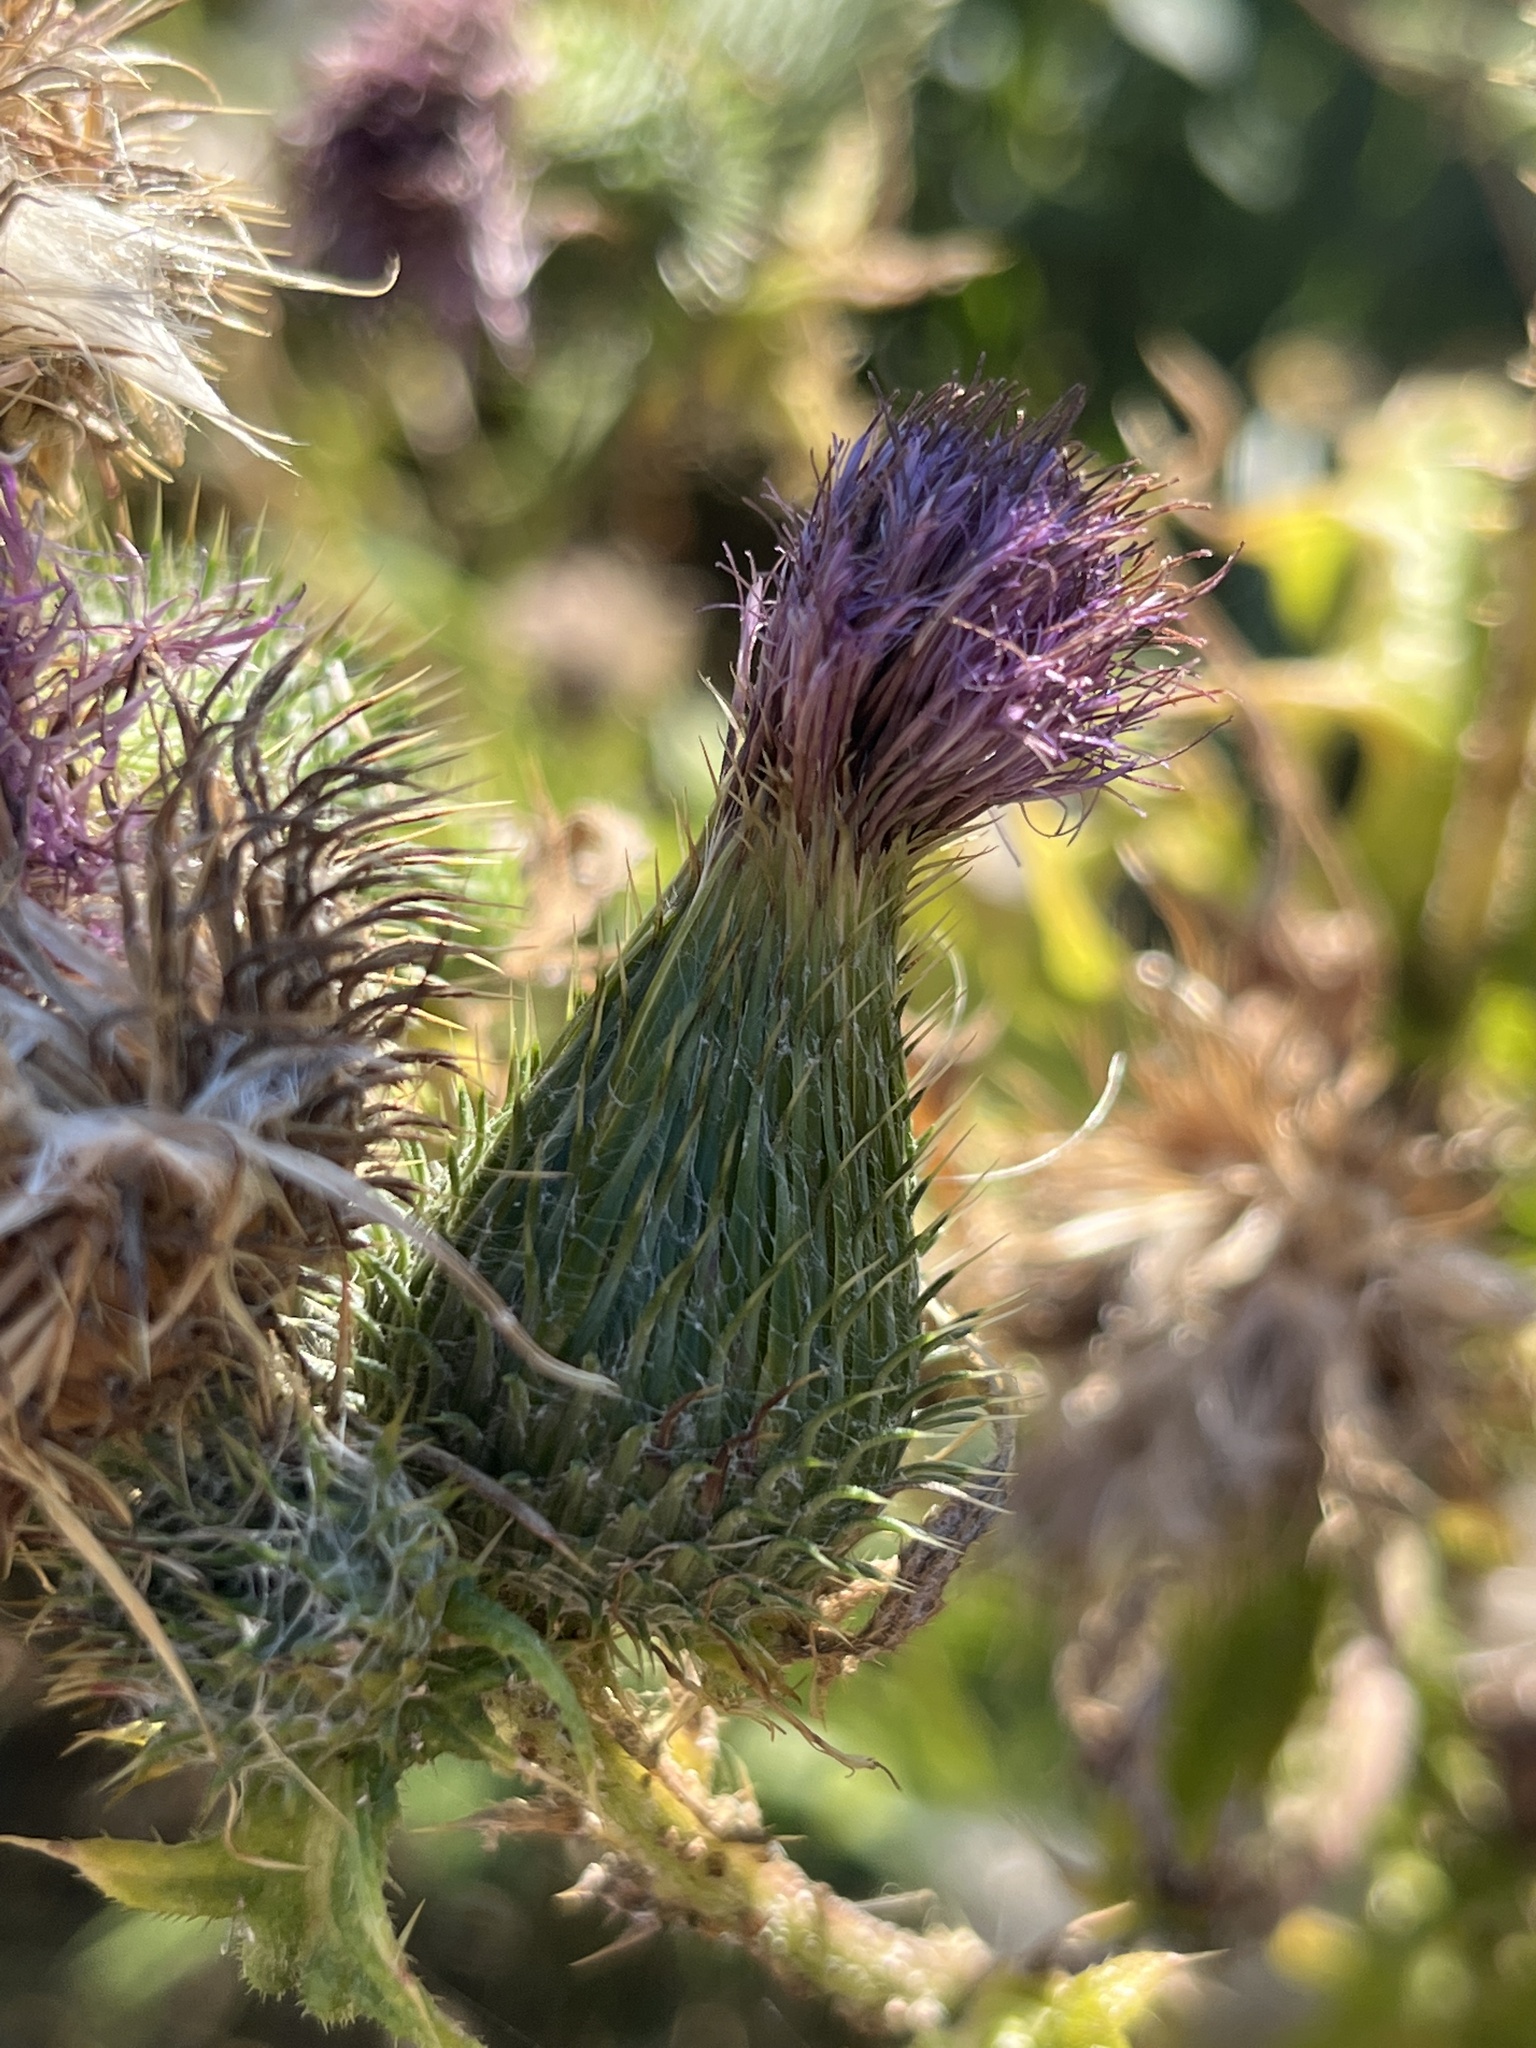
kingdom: Plantae
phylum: Tracheophyta
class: Magnoliopsida
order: Asterales
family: Asteraceae
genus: Cirsium
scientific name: Cirsium vulgare
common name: Bull thistle
